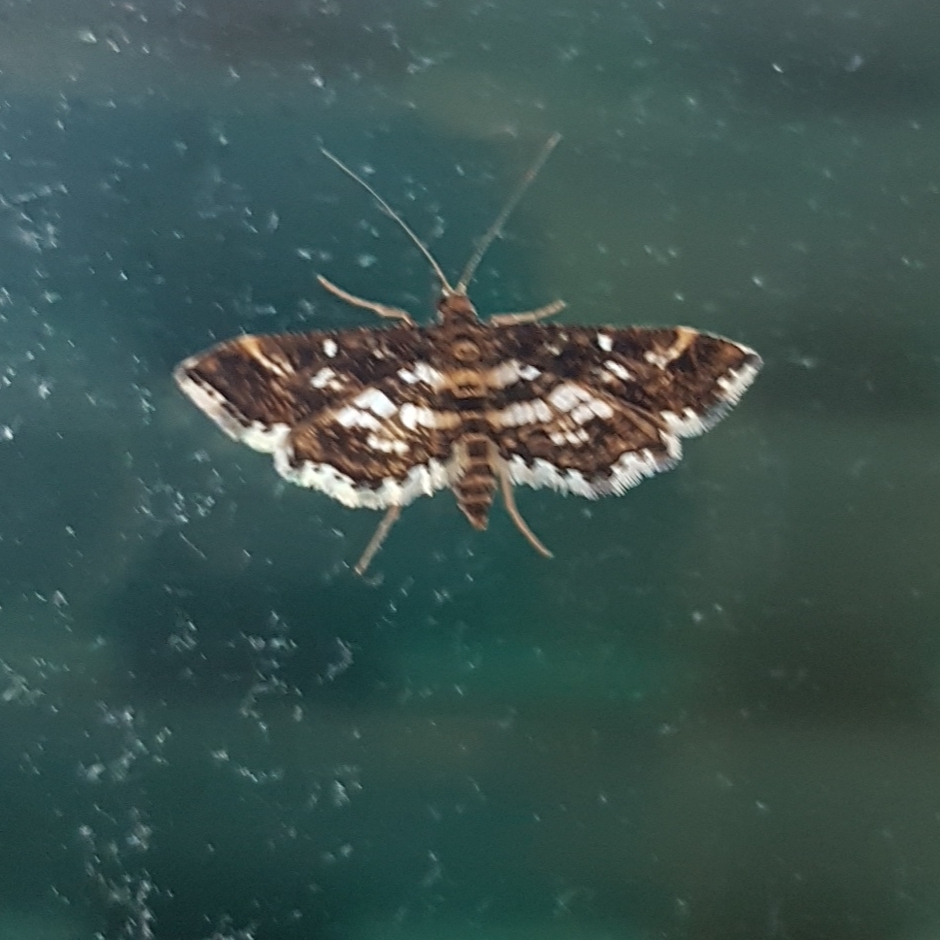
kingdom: Animalia
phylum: Arthropoda
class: Insecta
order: Lepidoptera
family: Crambidae
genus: Diasemiopsis
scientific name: Diasemiopsis ramburialis
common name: Vagrant china-mark
